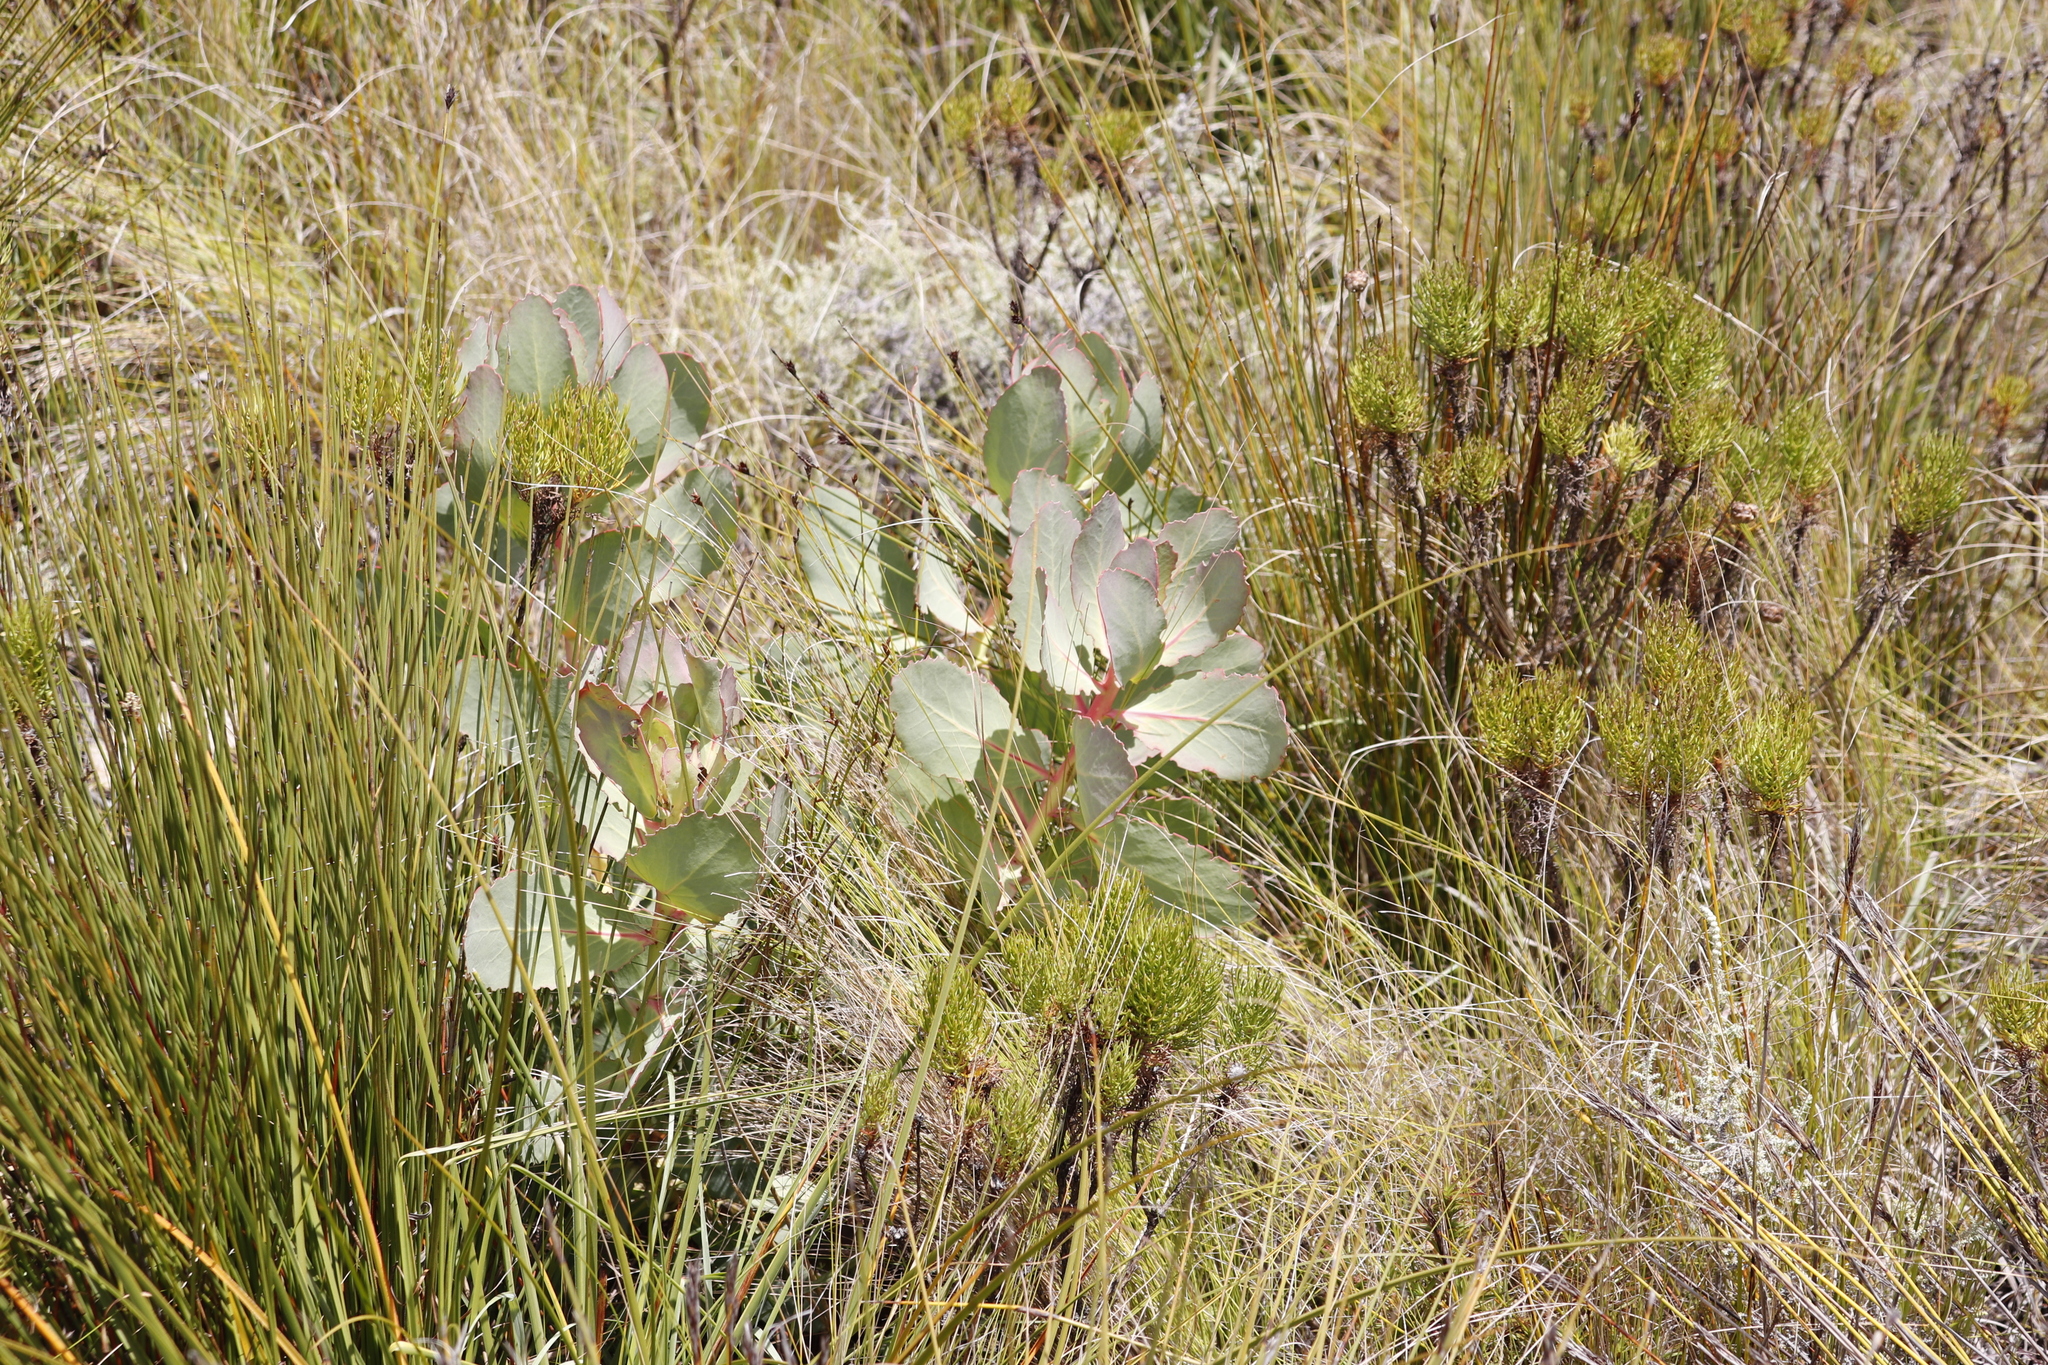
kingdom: Plantae
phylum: Tracheophyta
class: Magnoliopsida
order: Proteales
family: Proteaceae
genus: Protea
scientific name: Protea grandiceps
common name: Red sugarbush
